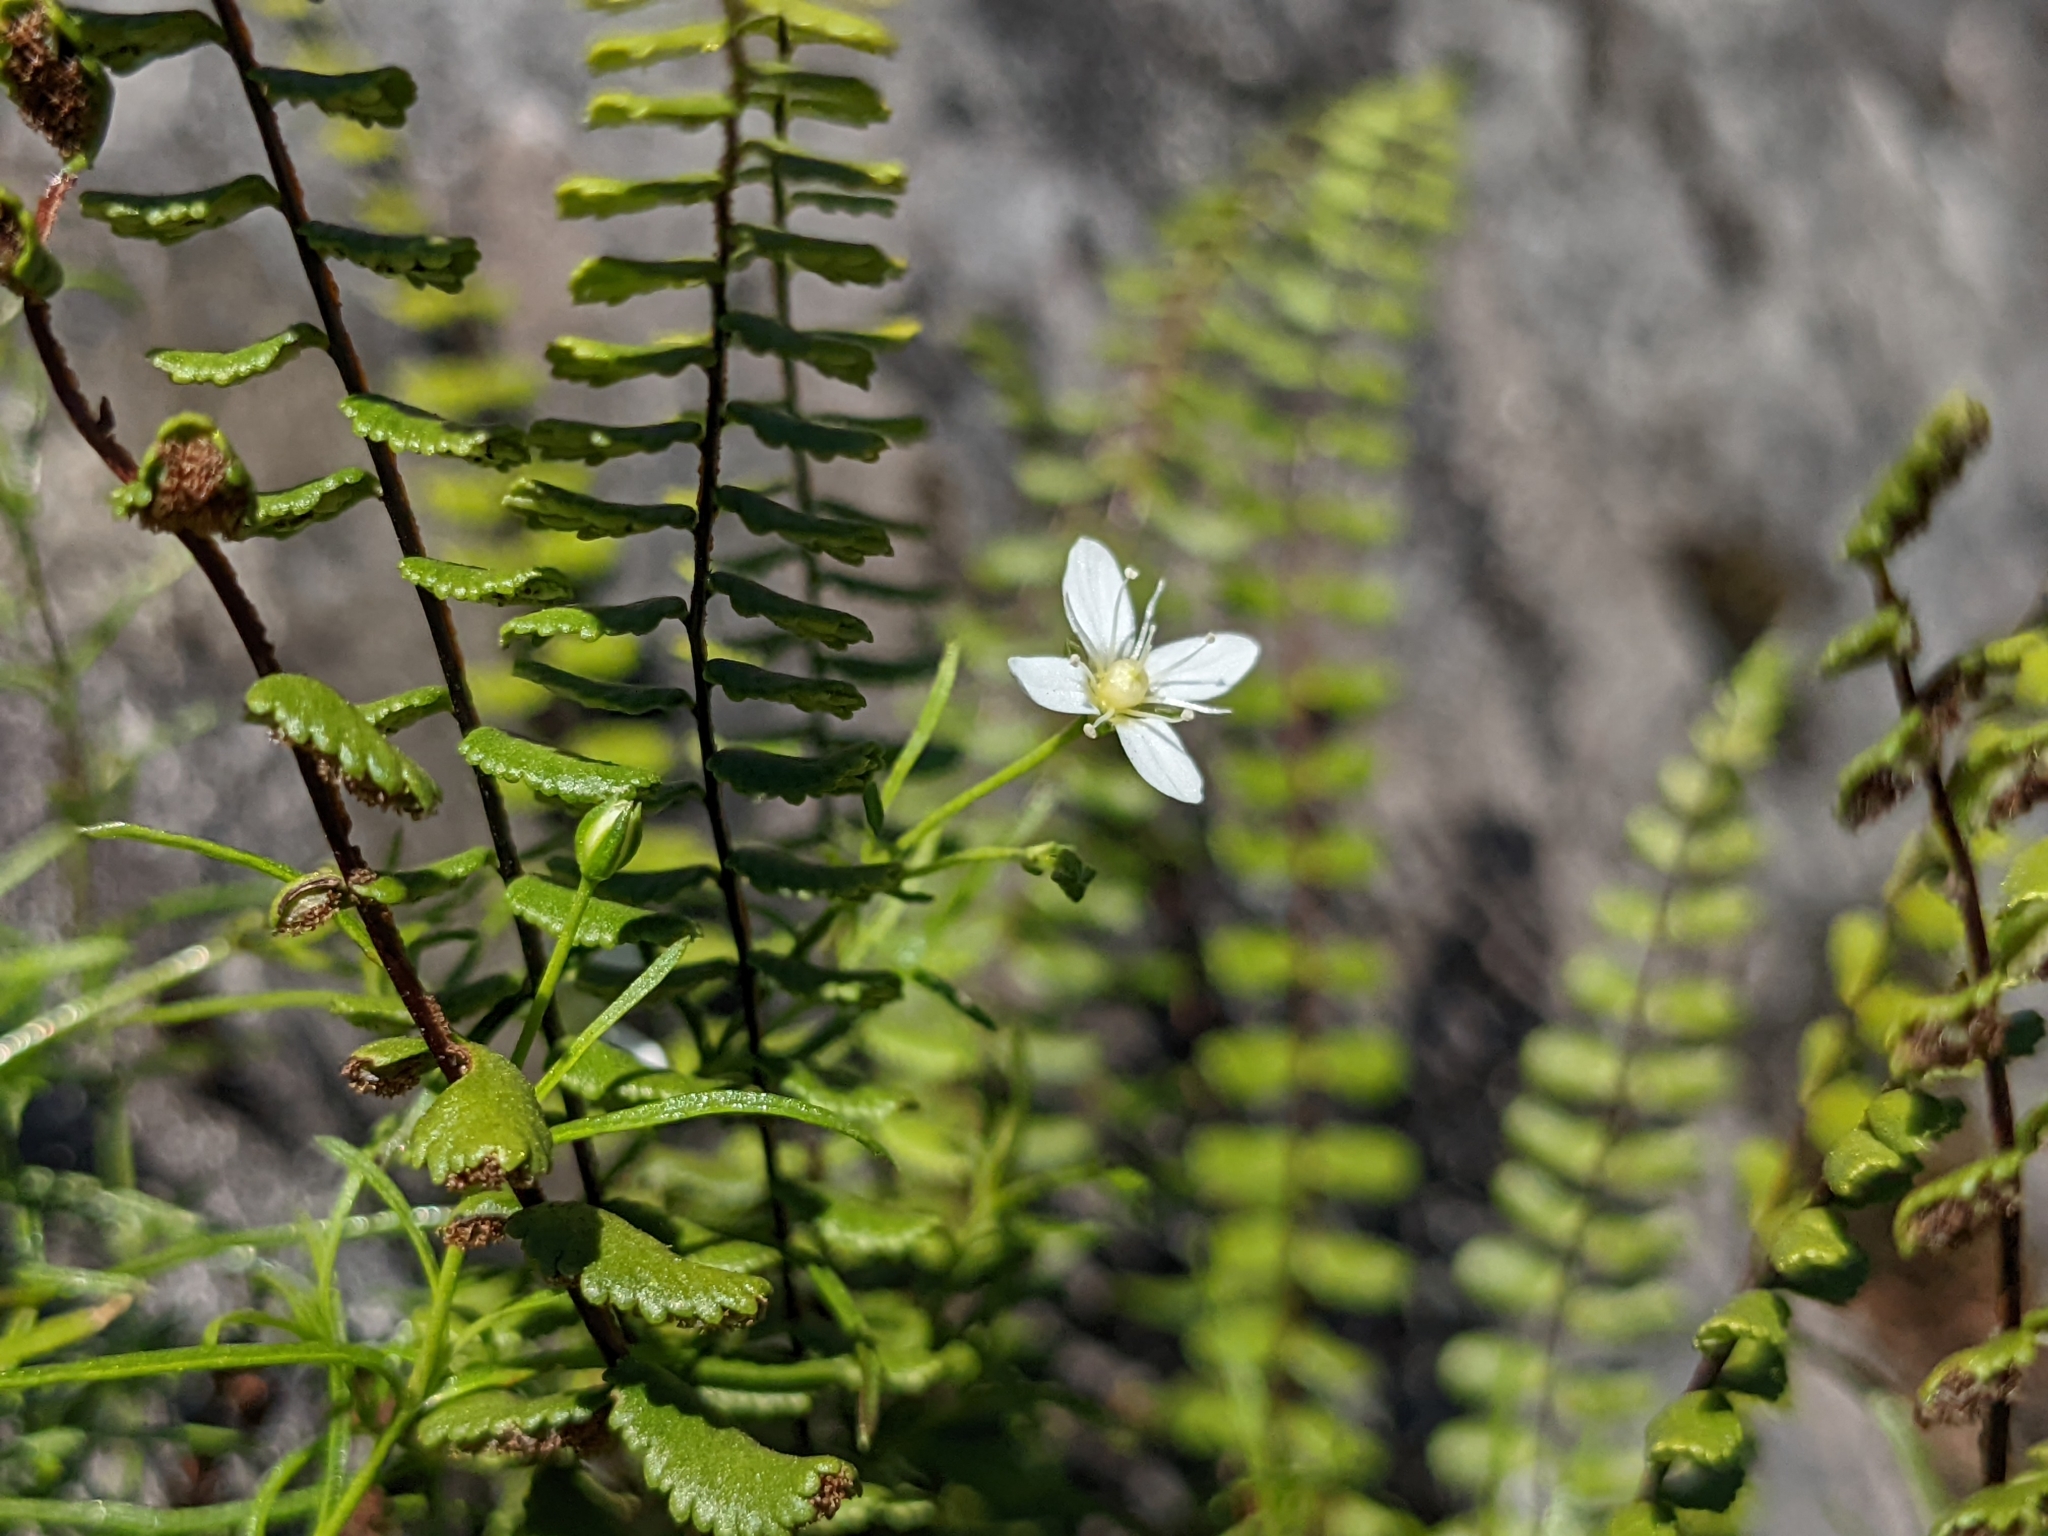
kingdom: Plantae
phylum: Tracheophyta
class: Magnoliopsida
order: Caryophyllales
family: Caryophyllaceae
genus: Moehringia
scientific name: Moehringia muscosa
